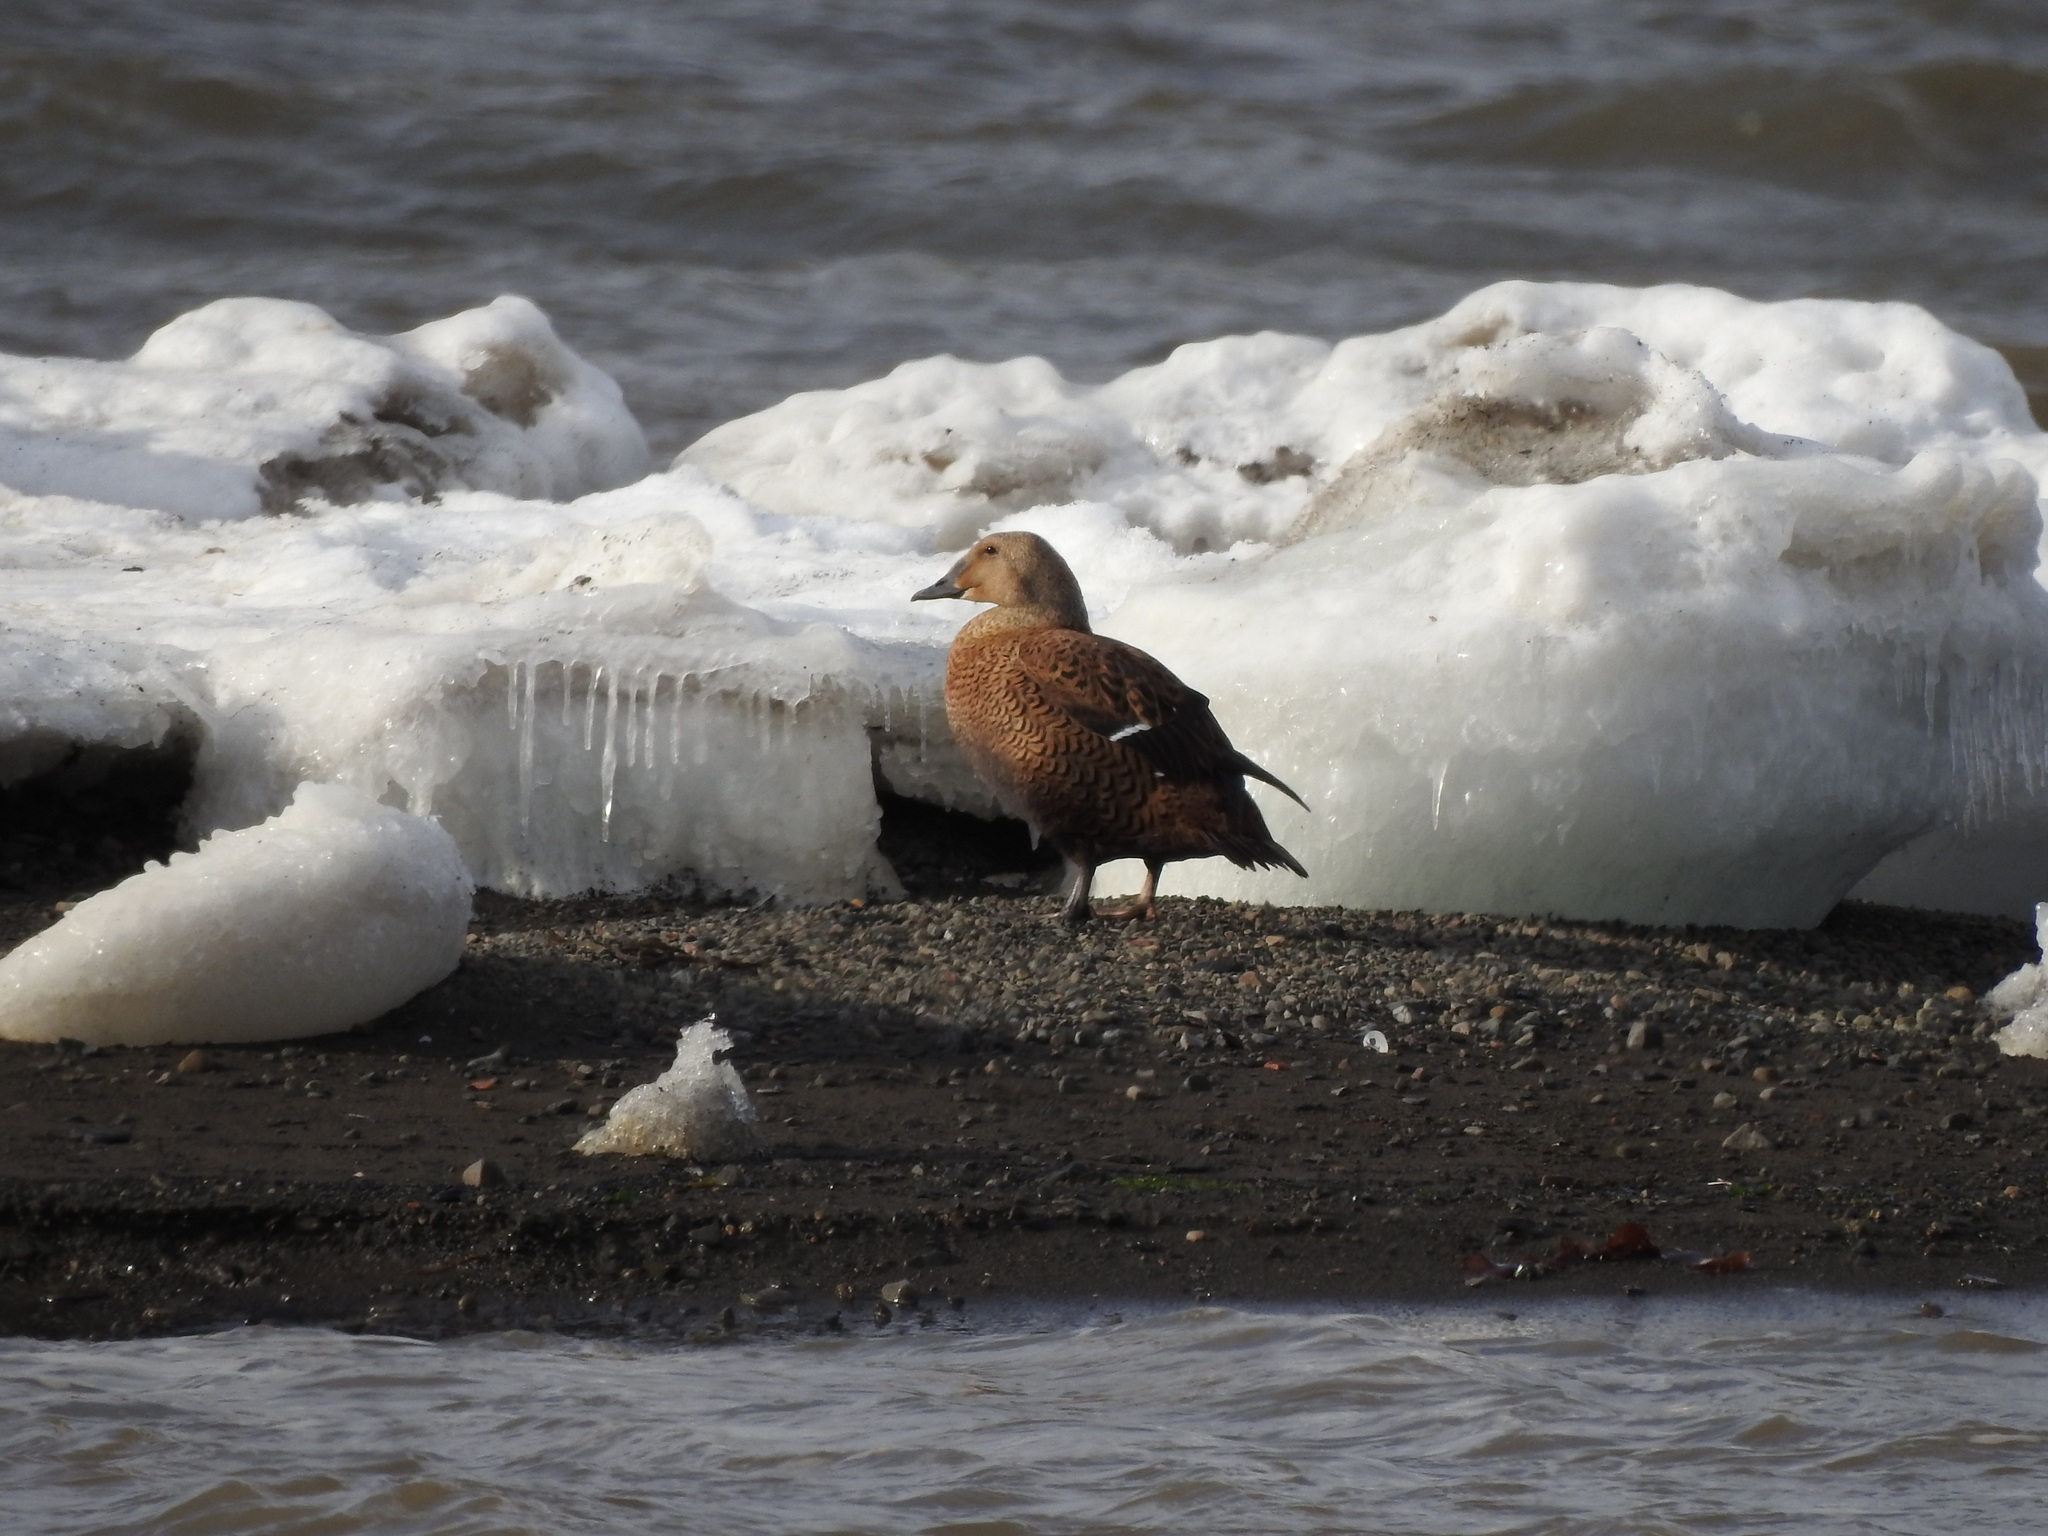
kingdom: Animalia
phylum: Chordata
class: Aves
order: Anseriformes
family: Anatidae
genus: Somateria
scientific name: Somateria mollissima
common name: Common eider
